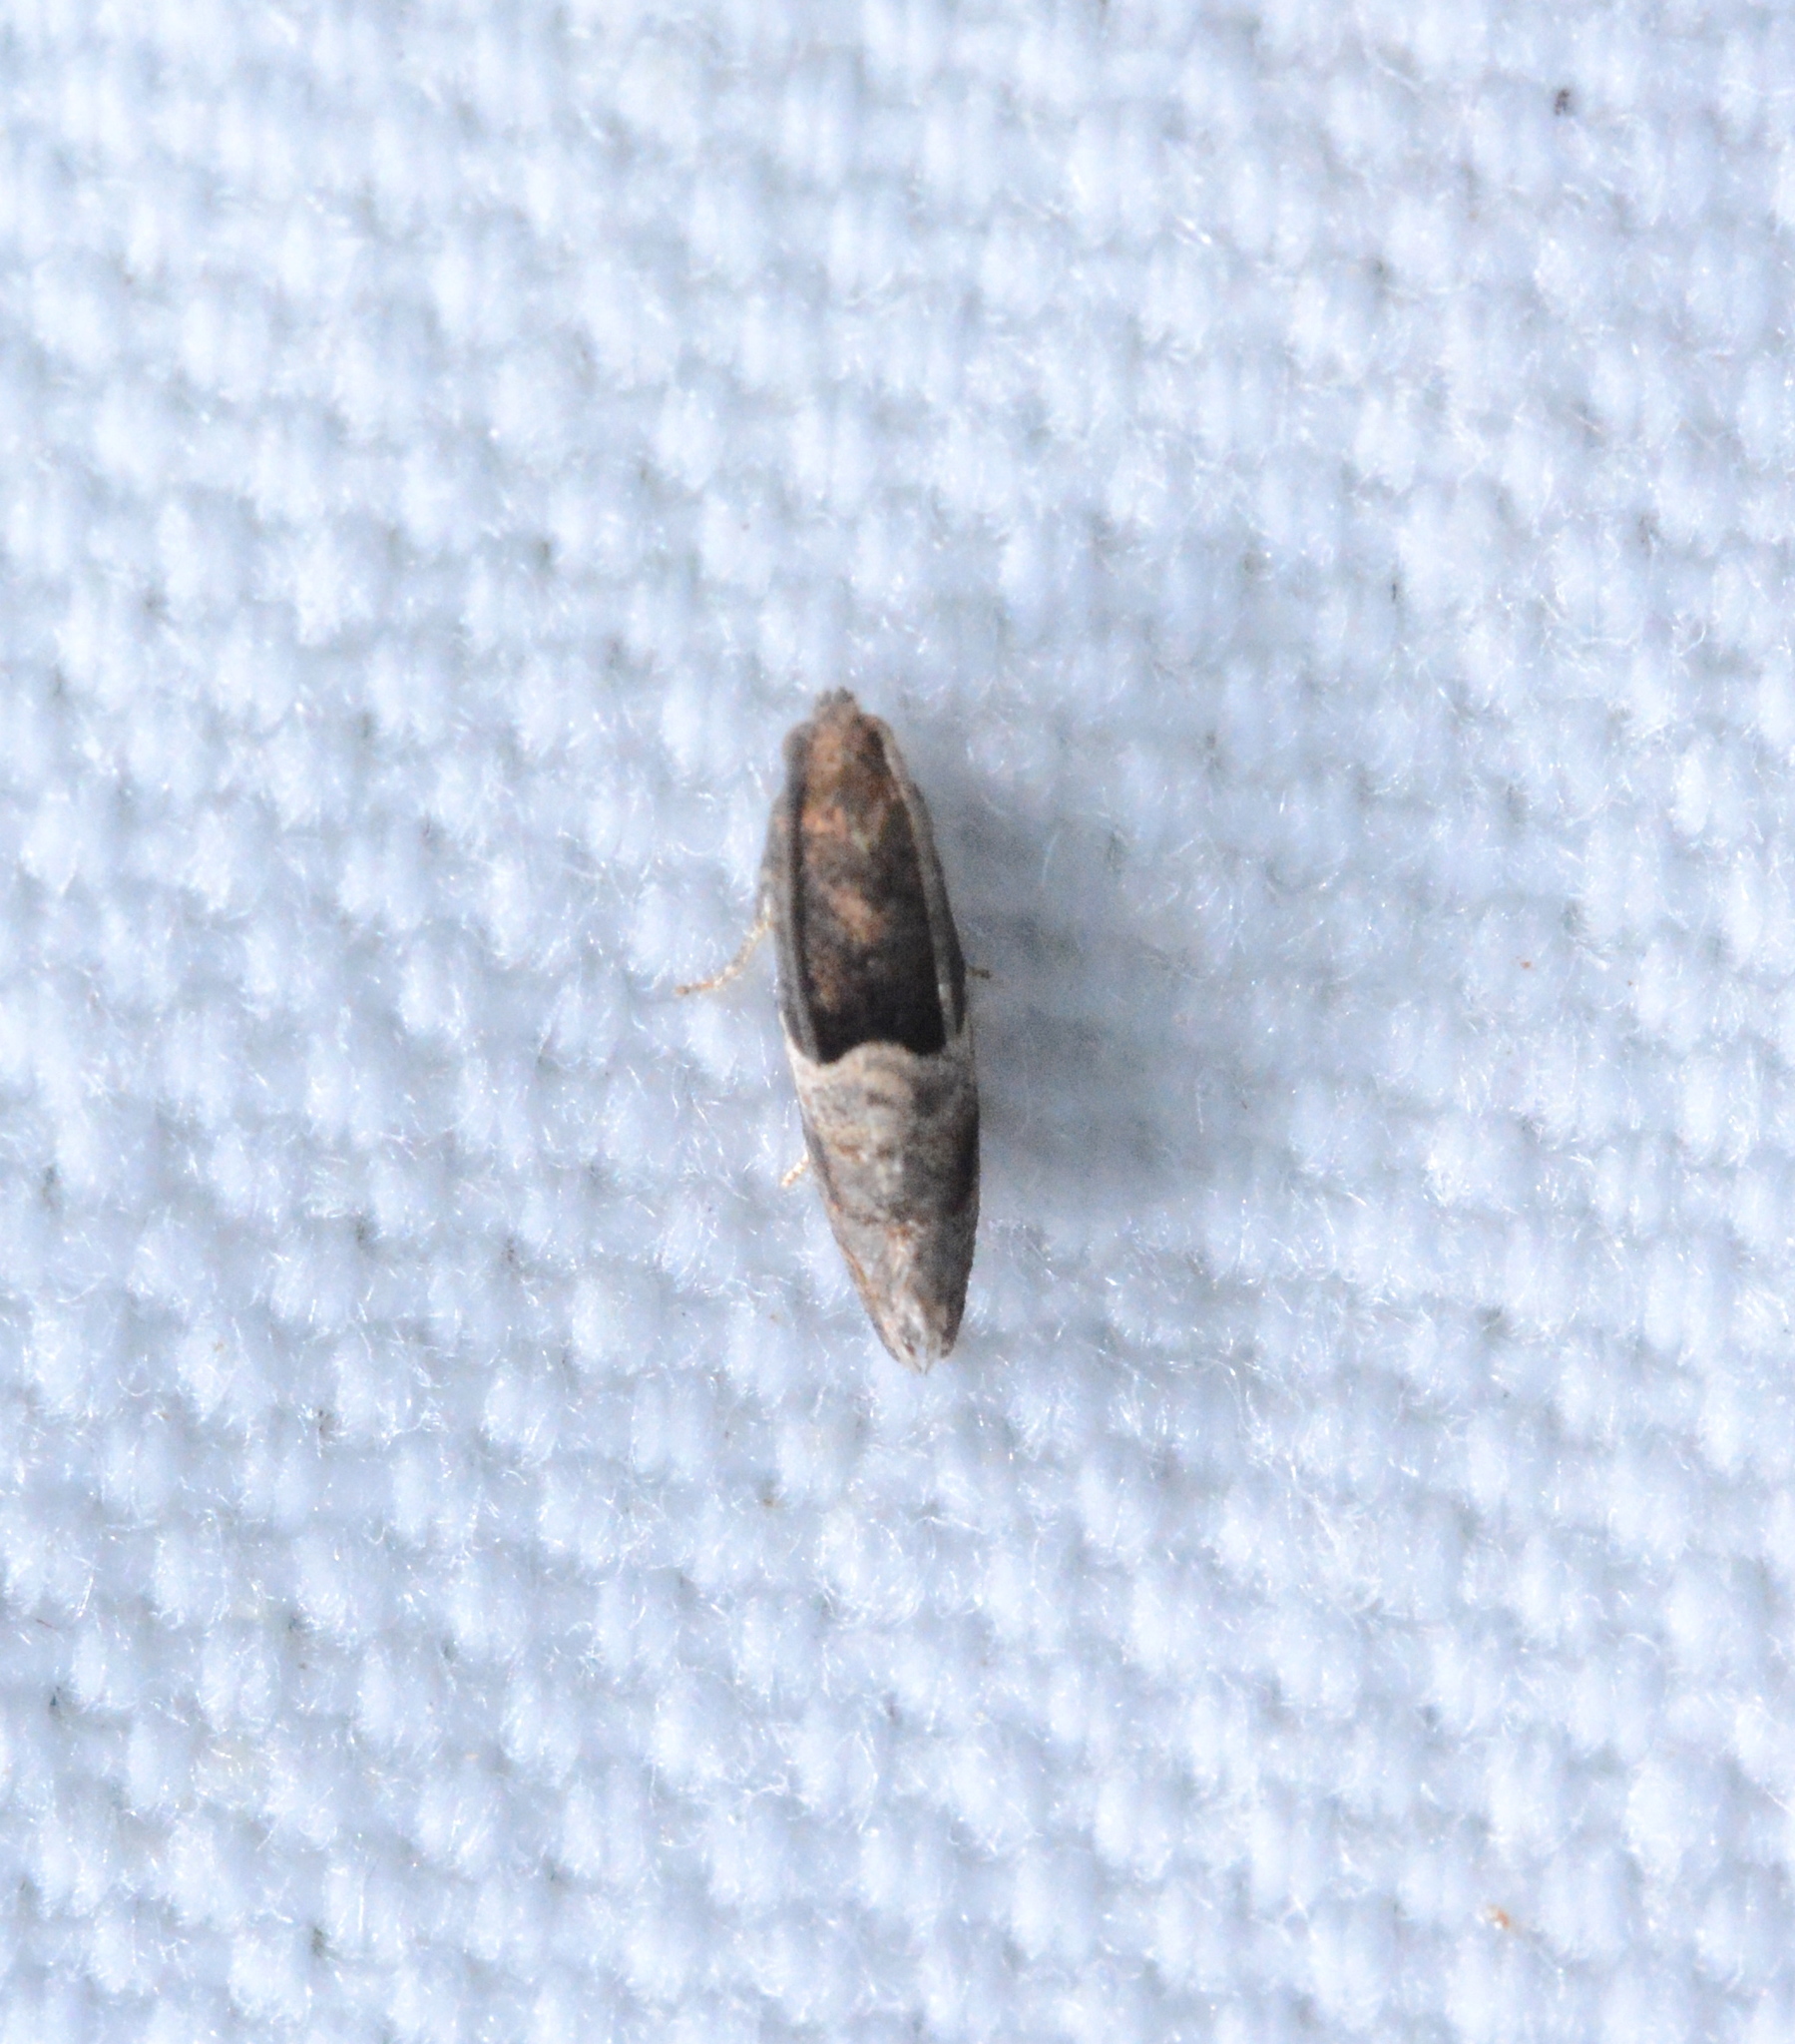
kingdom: Animalia
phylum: Arthropoda
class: Insecta
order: Lepidoptera
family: Tortricidae
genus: Larisa
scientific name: Larisa subsolana
